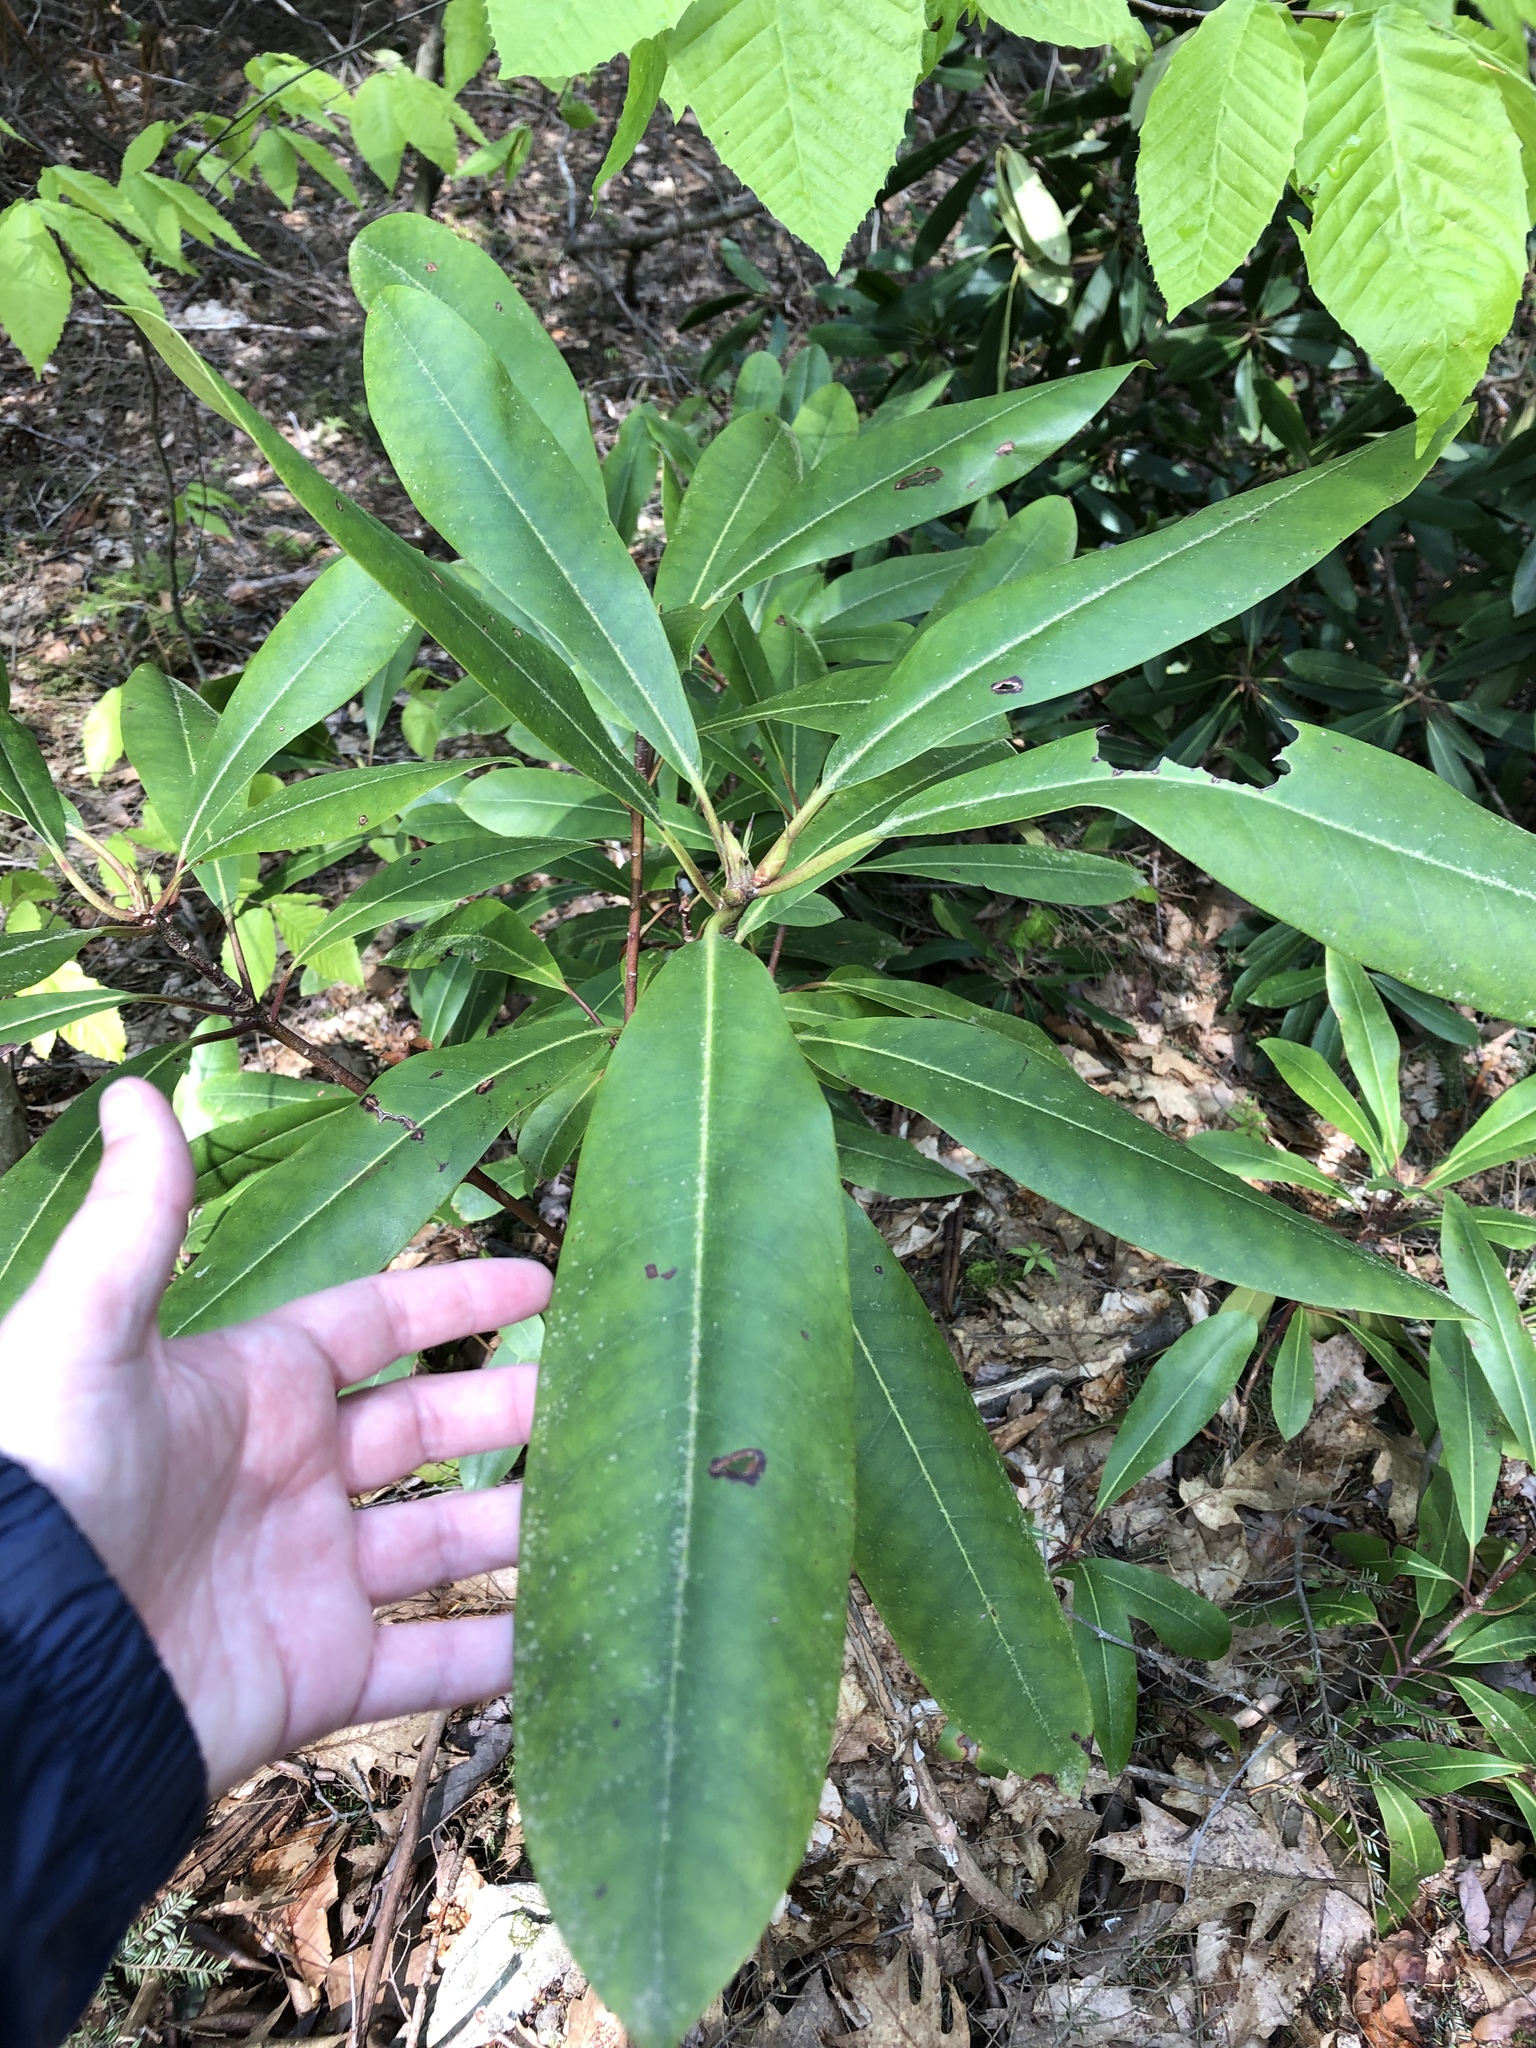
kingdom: Plantae
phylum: Tracheophyta
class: Magnoliopsida
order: Ericales
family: Ericaceae
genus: Rhododendron
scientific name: Rhododendron maximum
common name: Great rhododendron
